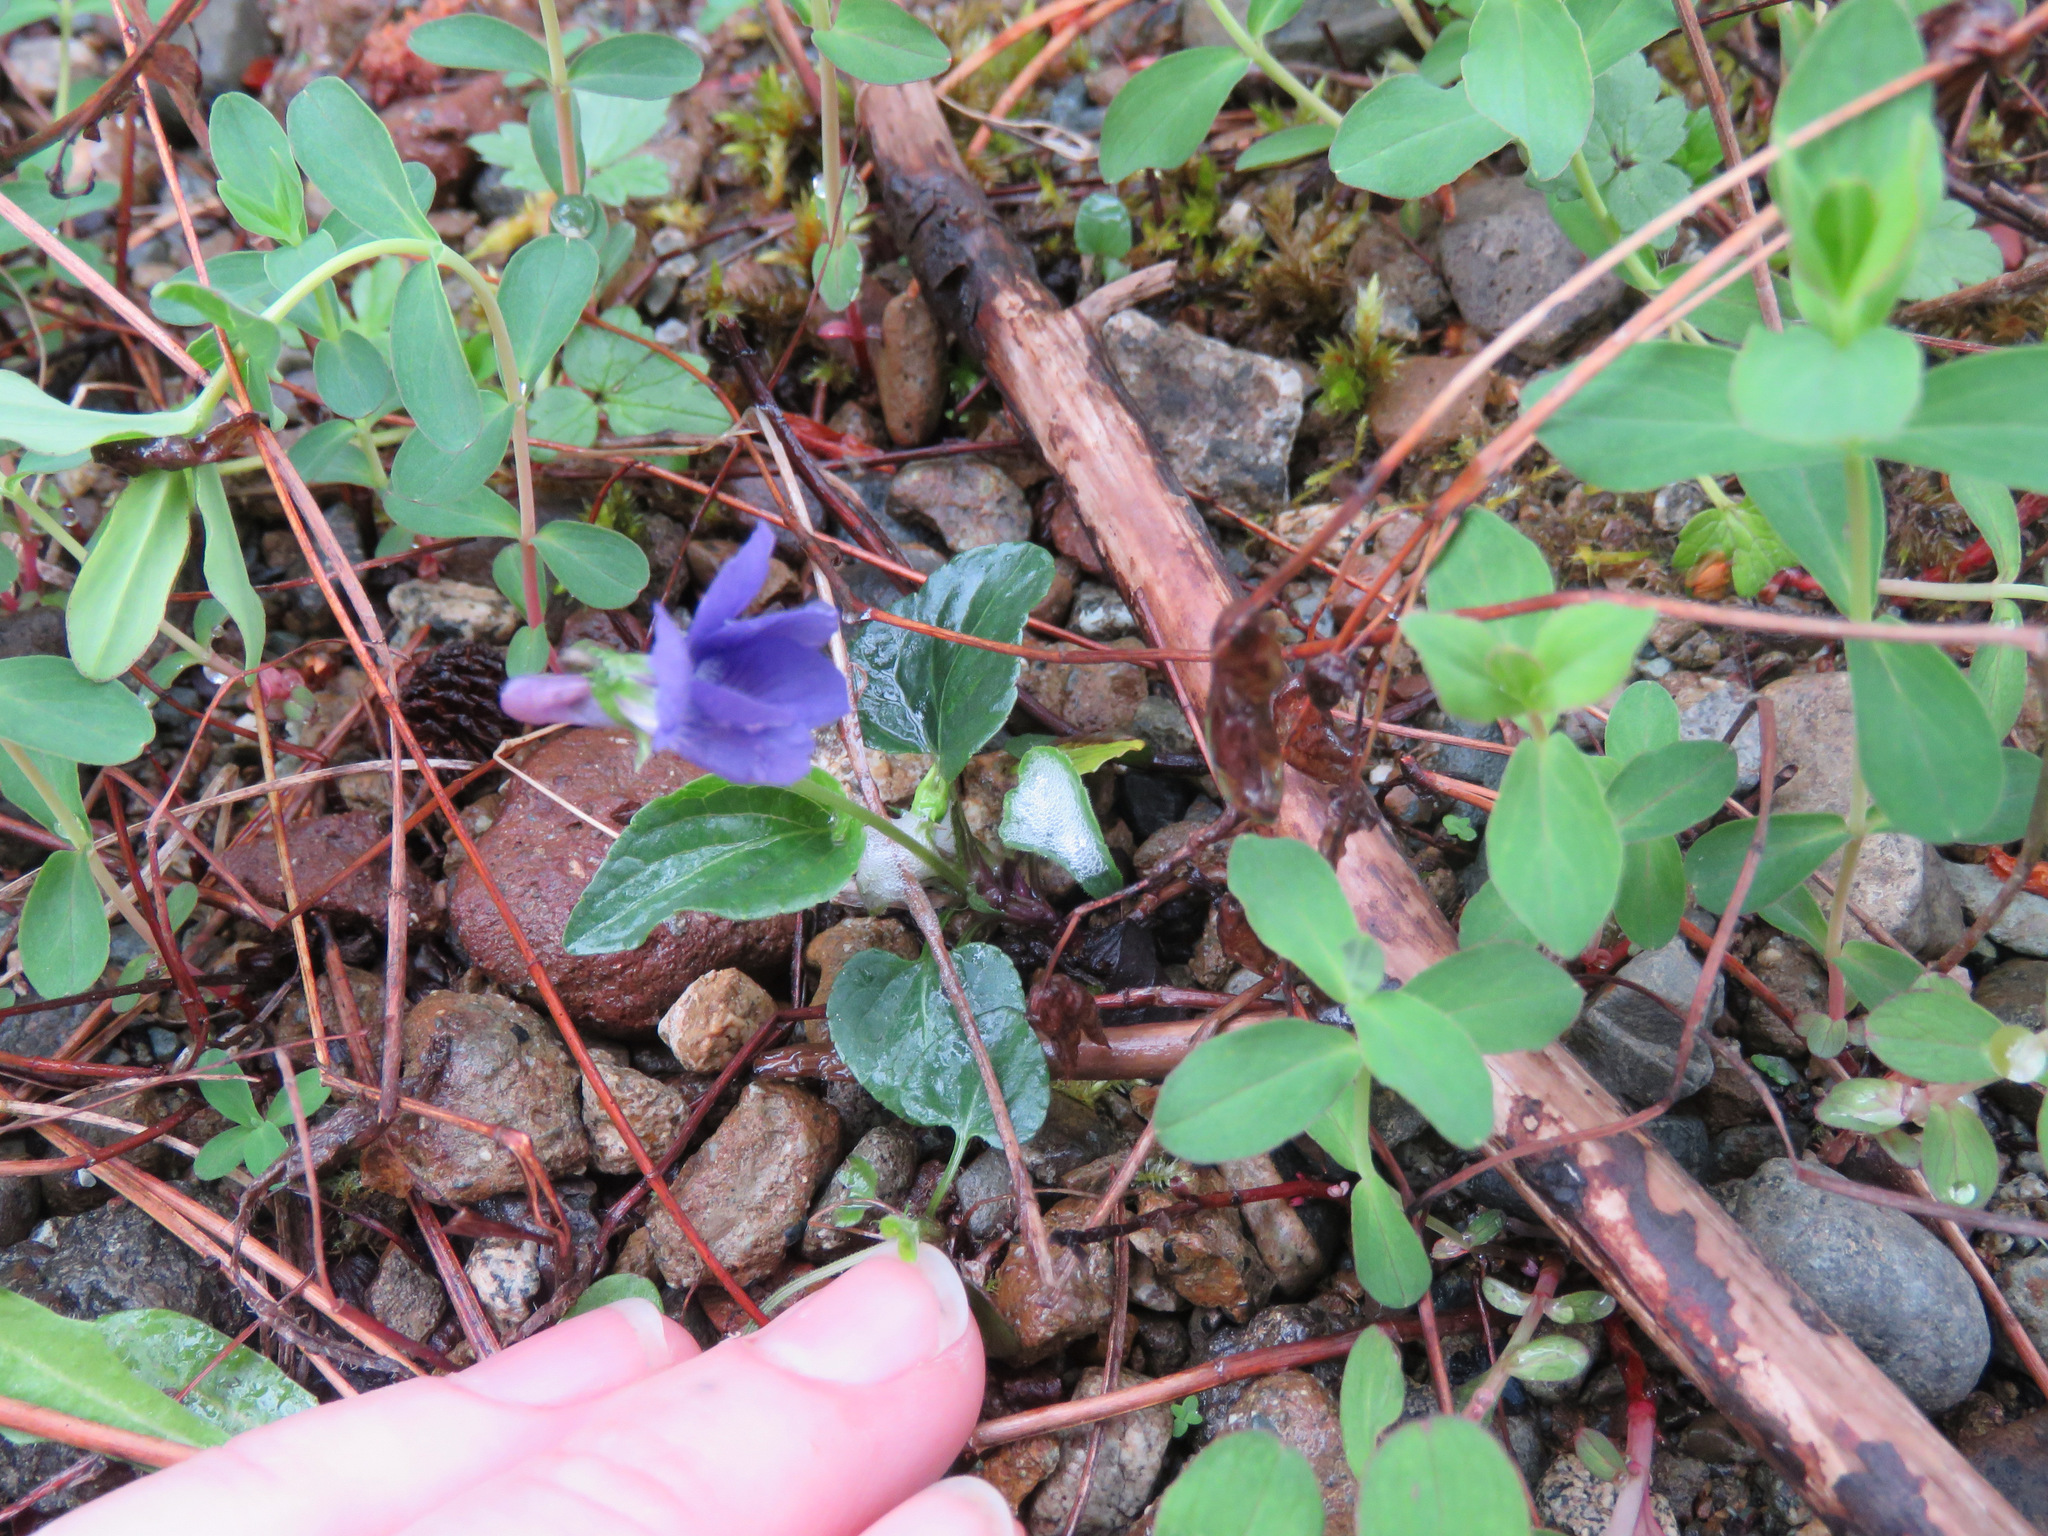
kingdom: Plantae
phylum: Tracheophyta
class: Magnoliopsida
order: Malpighiales
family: Violaceae
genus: Viola
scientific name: Viola adunca
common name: Sand violet
